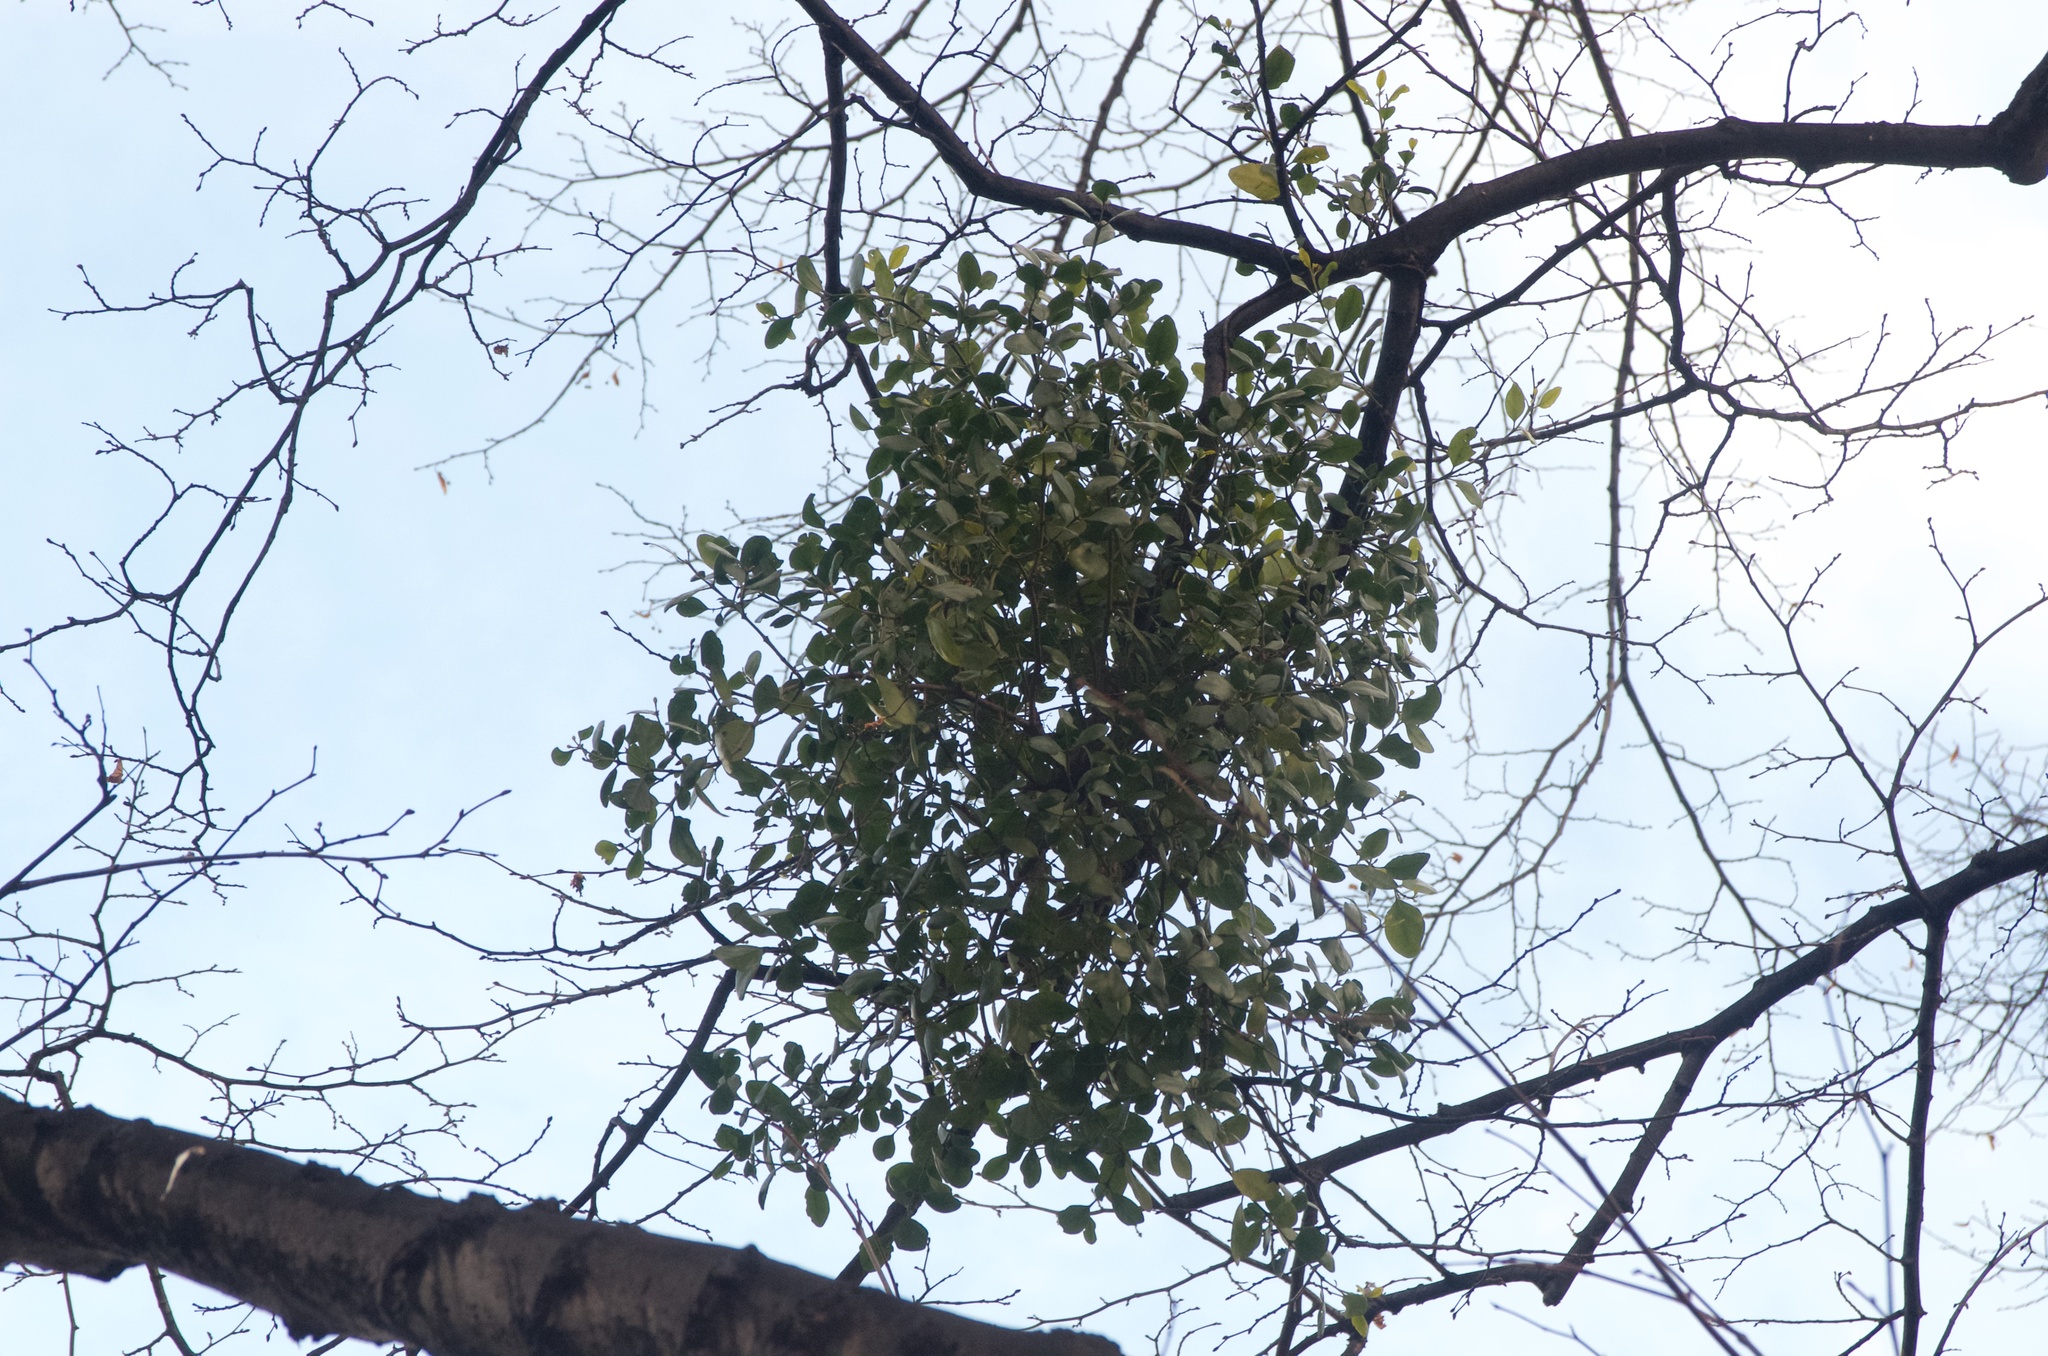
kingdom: Plantae
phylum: Tracheophyta
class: Magnoliopsida
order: Santalales
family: Loranthaceae
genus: Ileostylus
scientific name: Ileostylus micranthus
